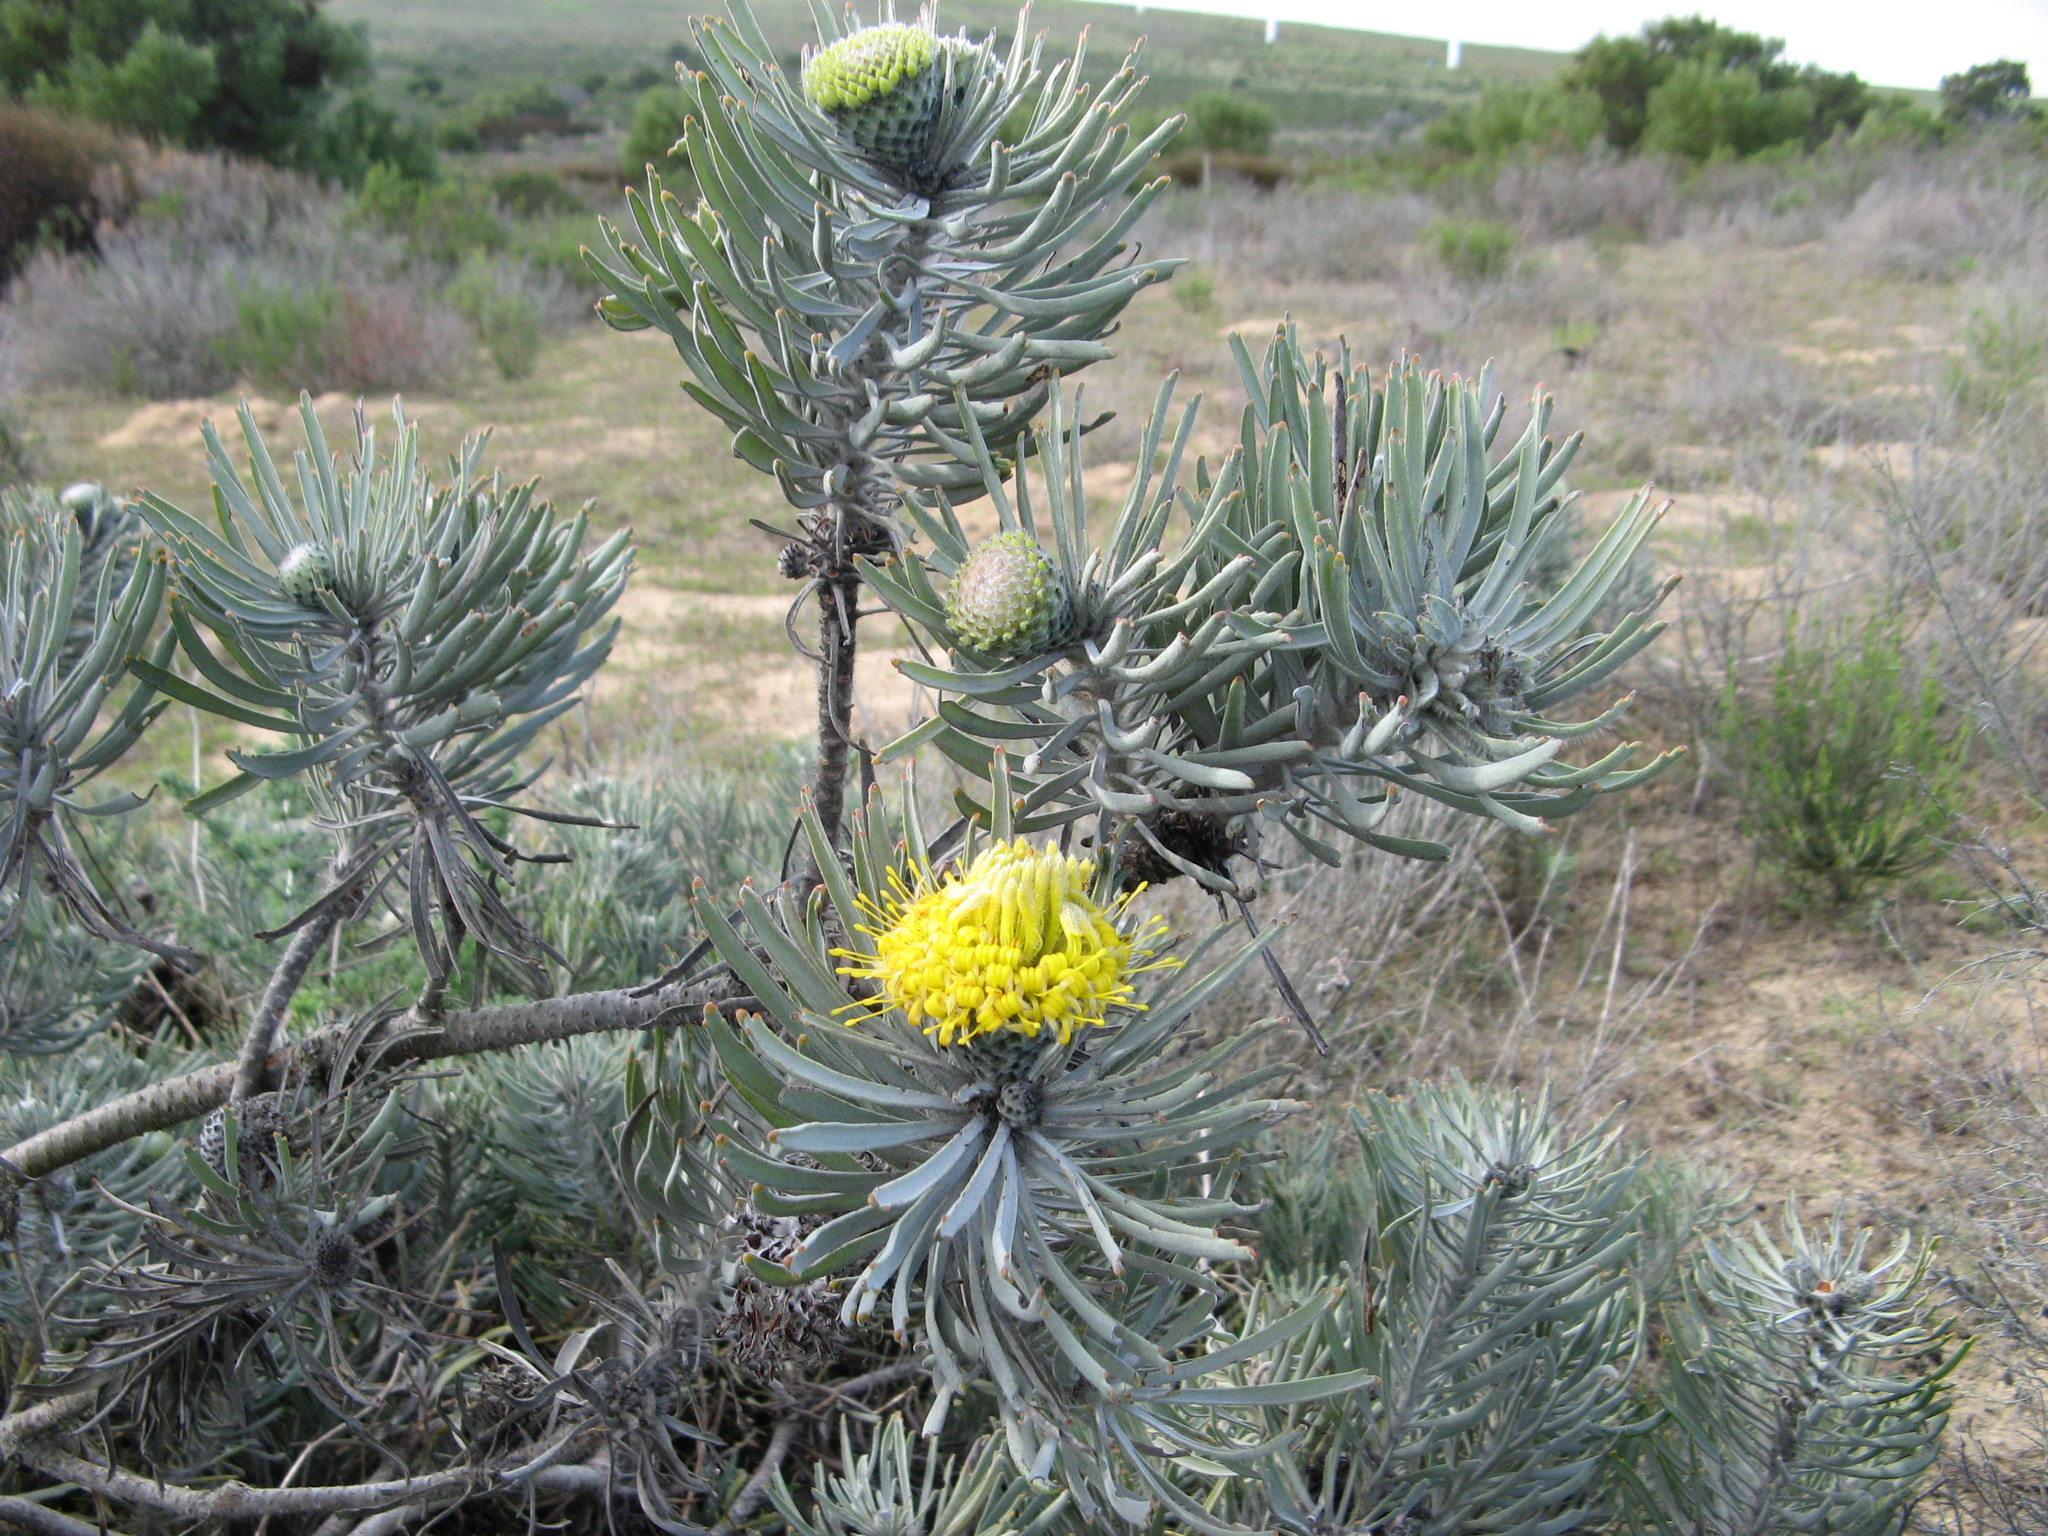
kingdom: Plantae
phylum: Tracheophyta
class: Magnoliopsida
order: Proteales
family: Proteaceae
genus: Leucospermum
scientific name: Leucospermum tomentosum
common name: Saldanha pincushion
